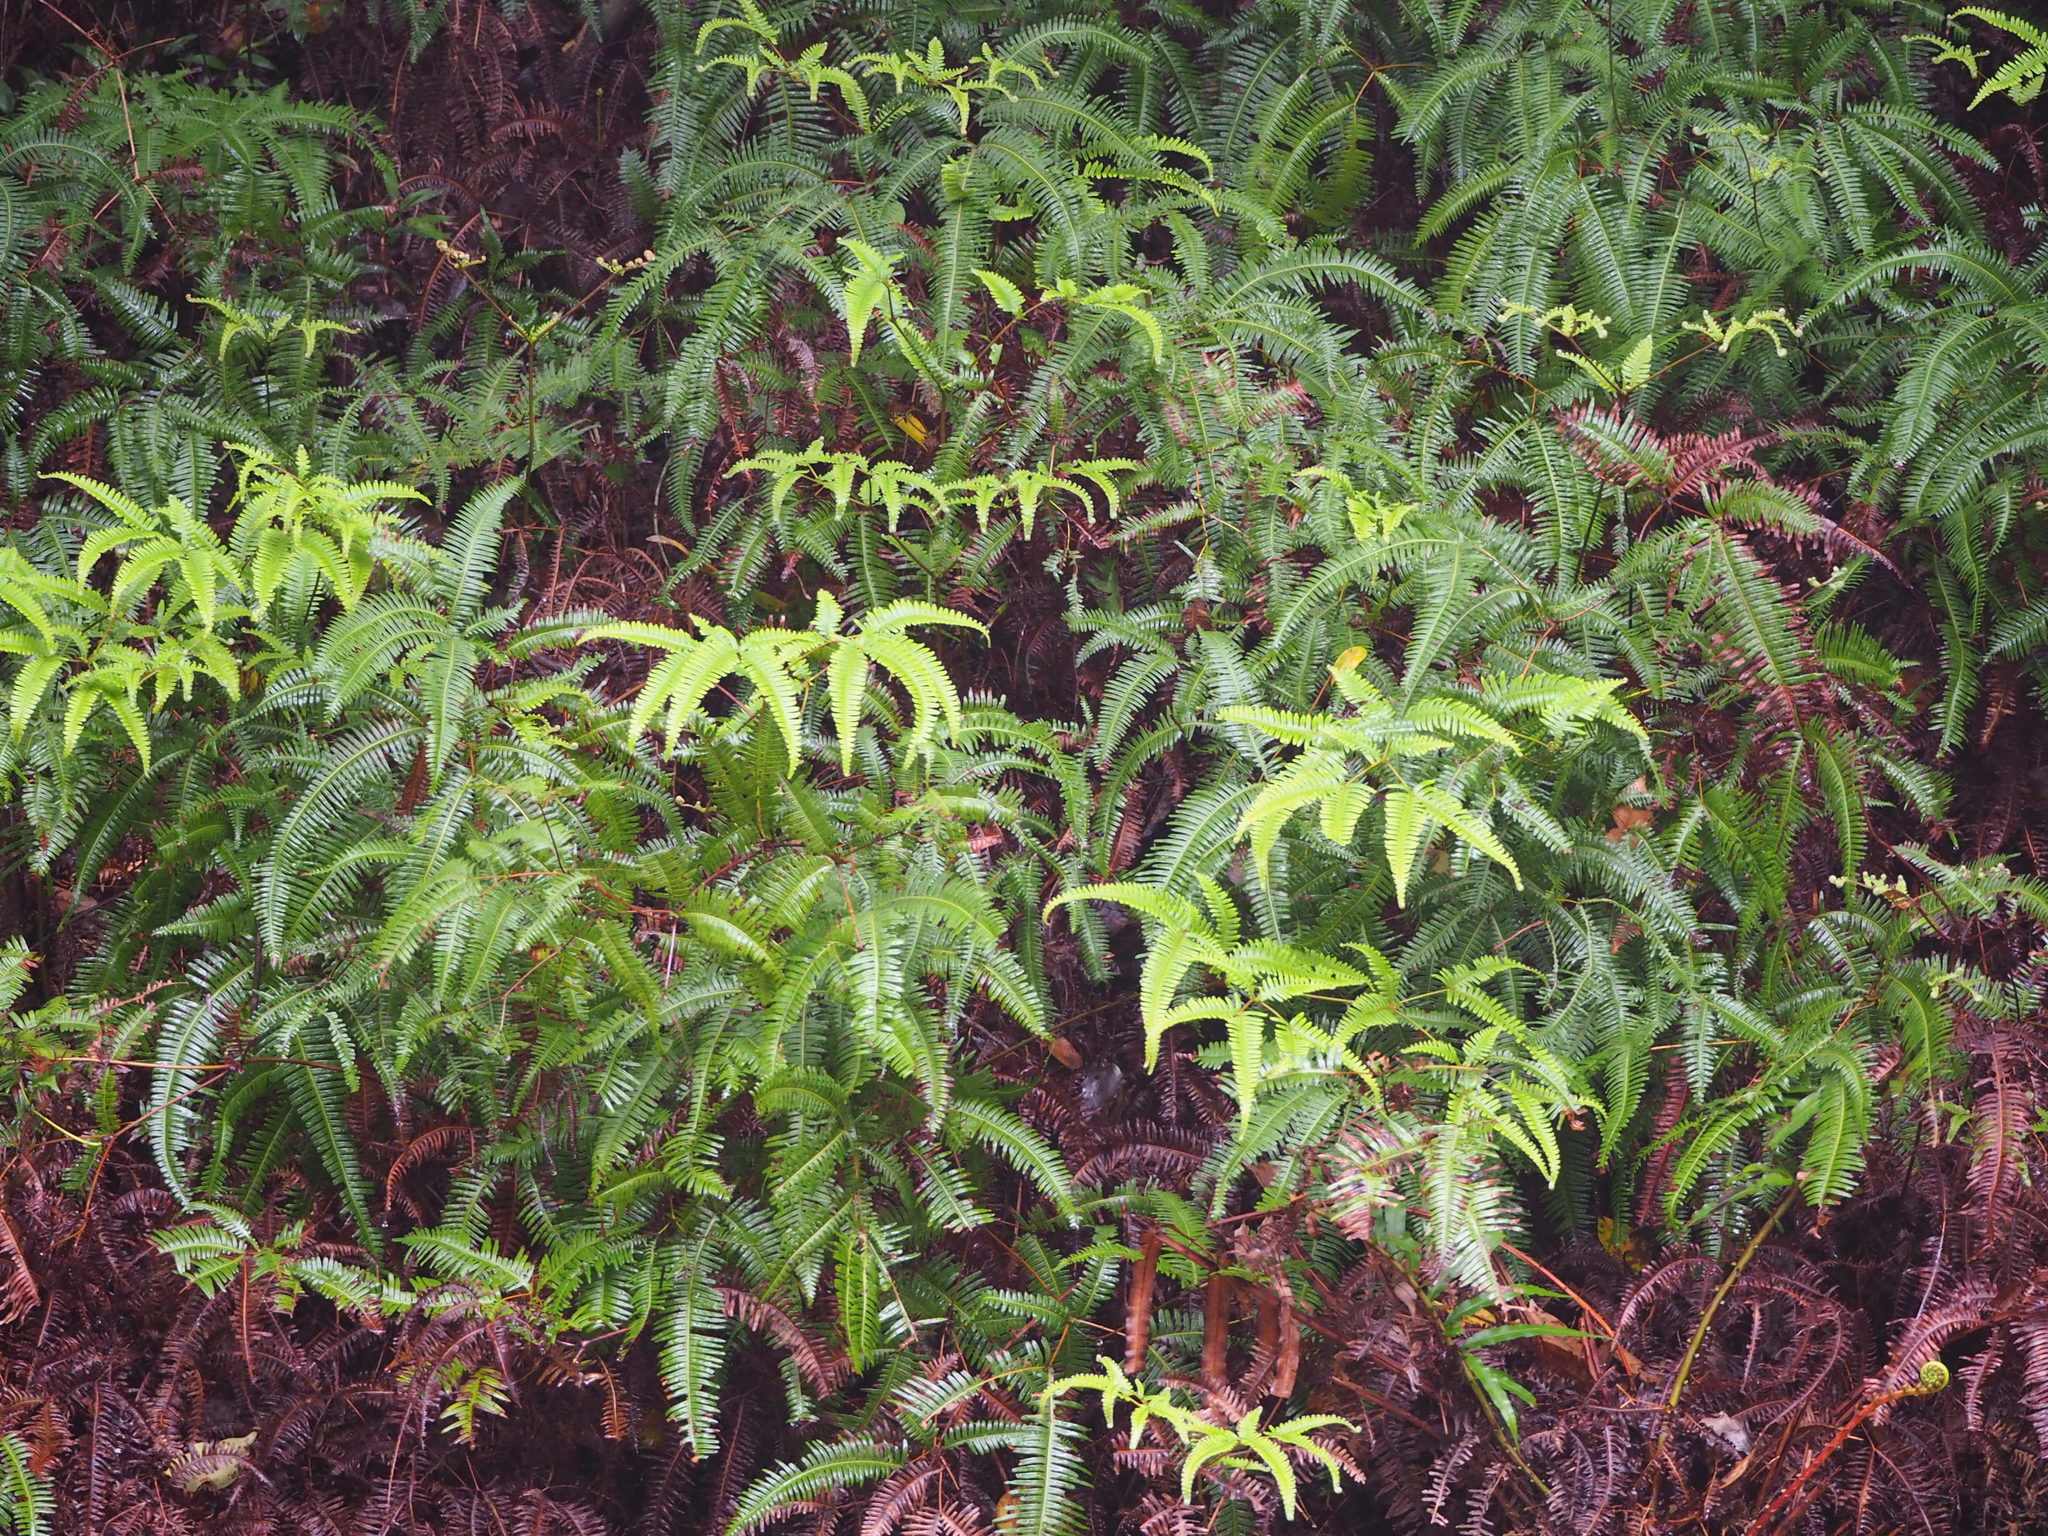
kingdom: Plantae
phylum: Tracheophyta
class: Polypodiopsida
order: Gleicheniales
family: Gleicheniaceae
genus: Dicranopteris
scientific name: Dicranopteris linearis
